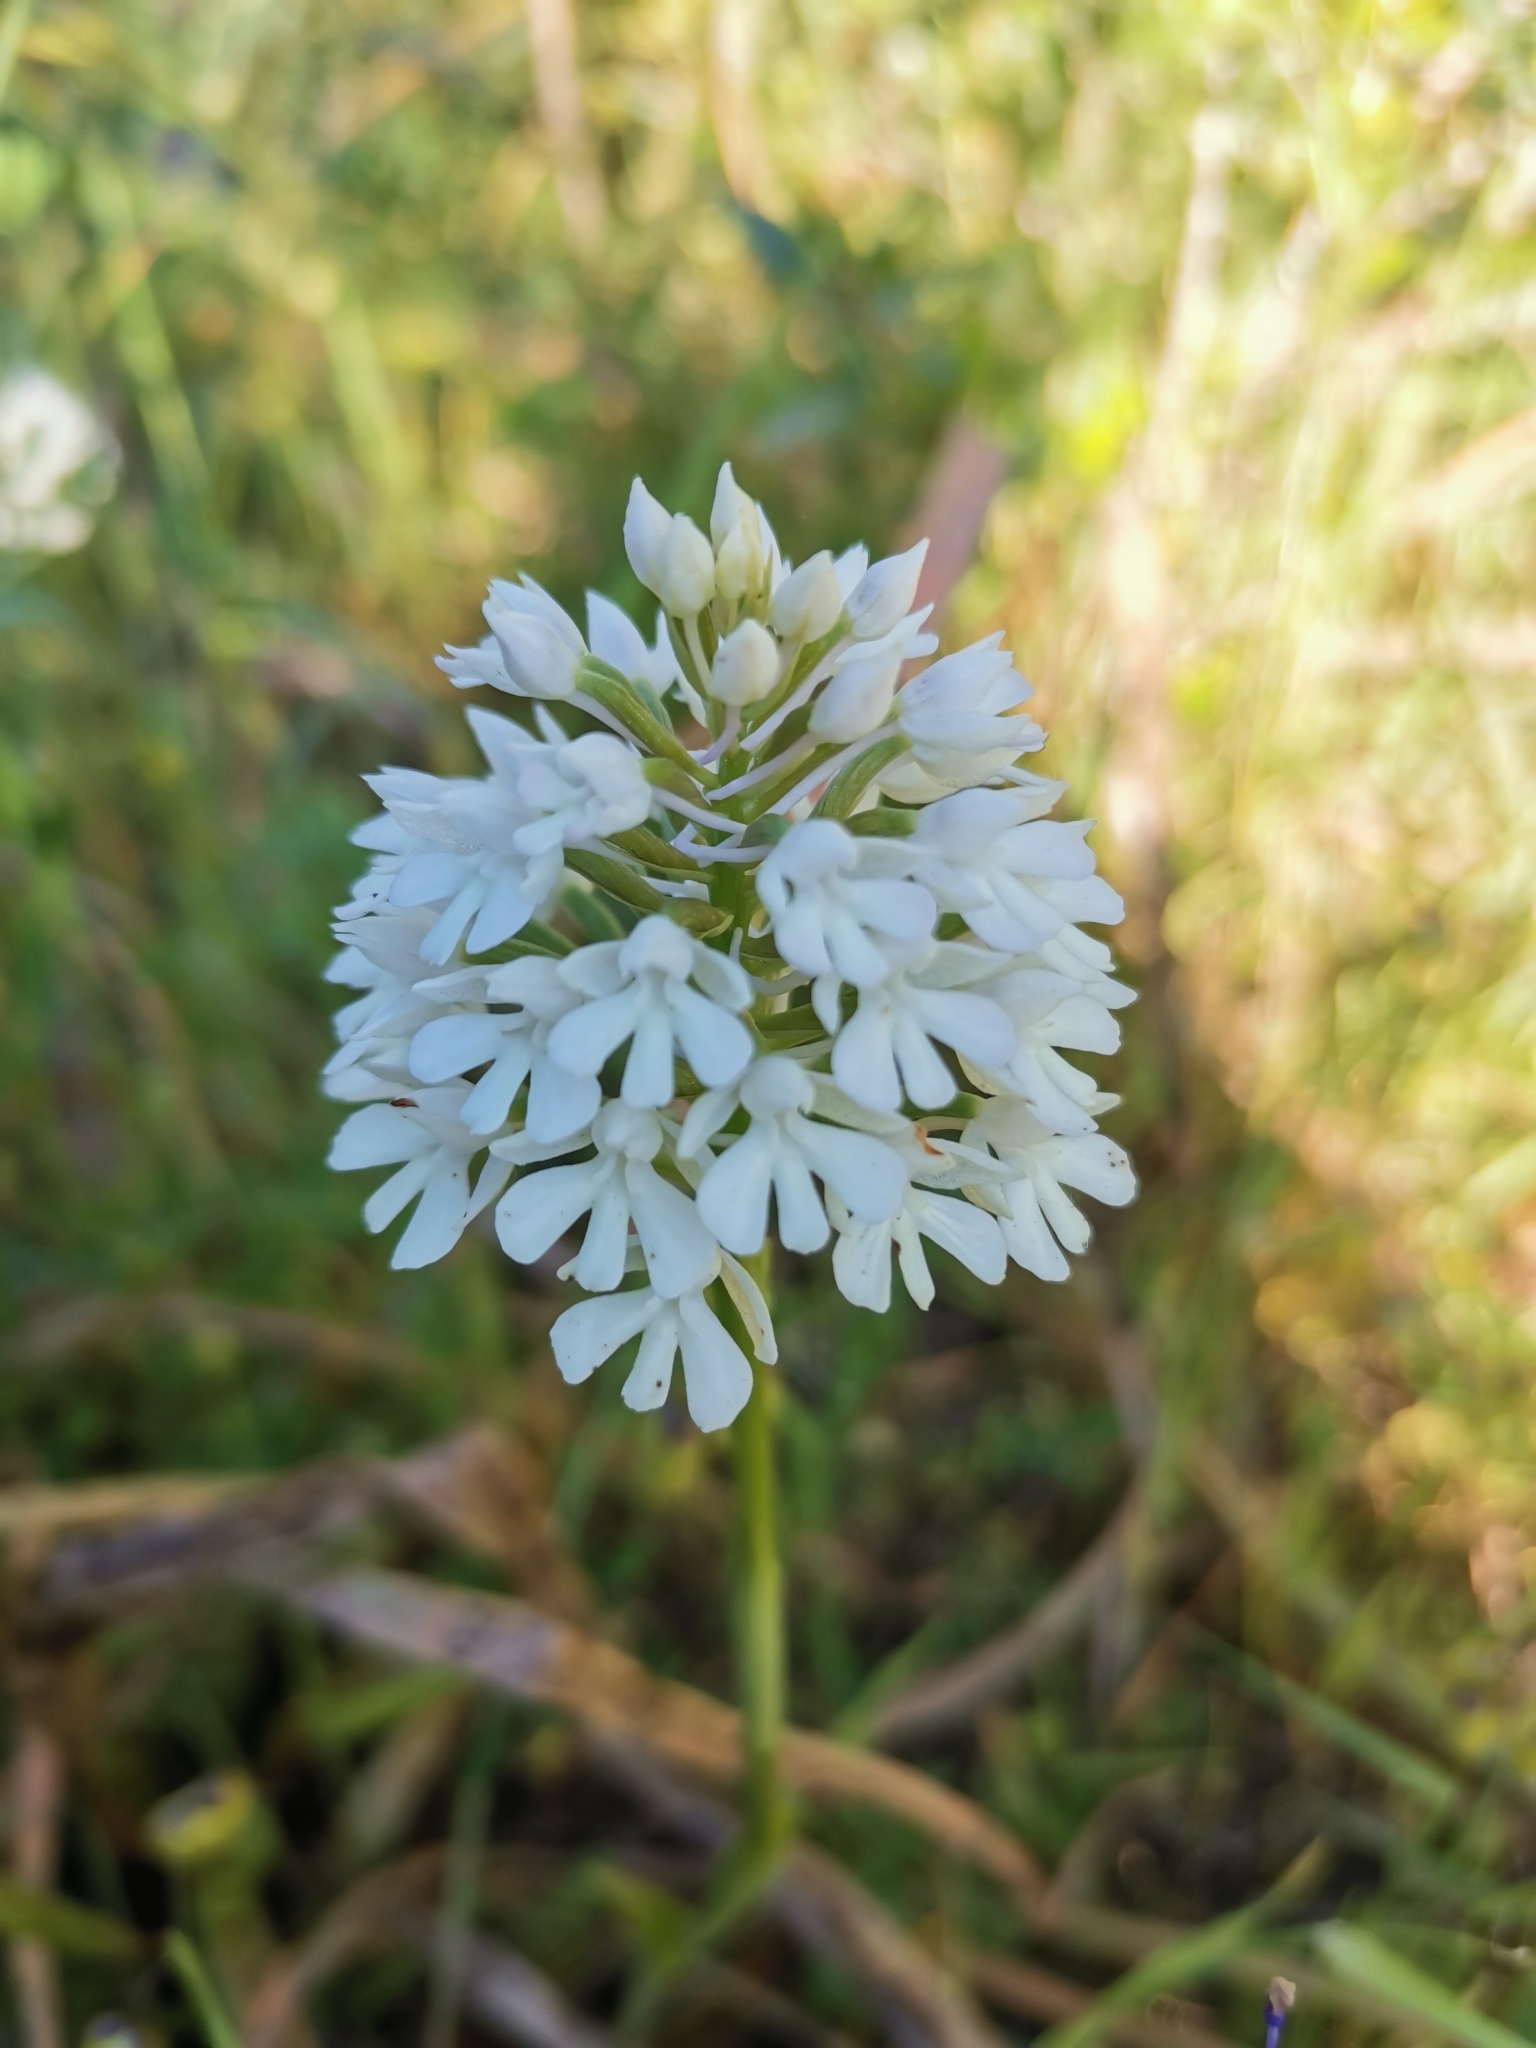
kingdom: Plantae
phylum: Tracheophyta
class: Liliopsida
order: Asparagales
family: Orchidaceae
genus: Anacamptis
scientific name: Anacamptis pyramidalis
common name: Pyramidal orchid
